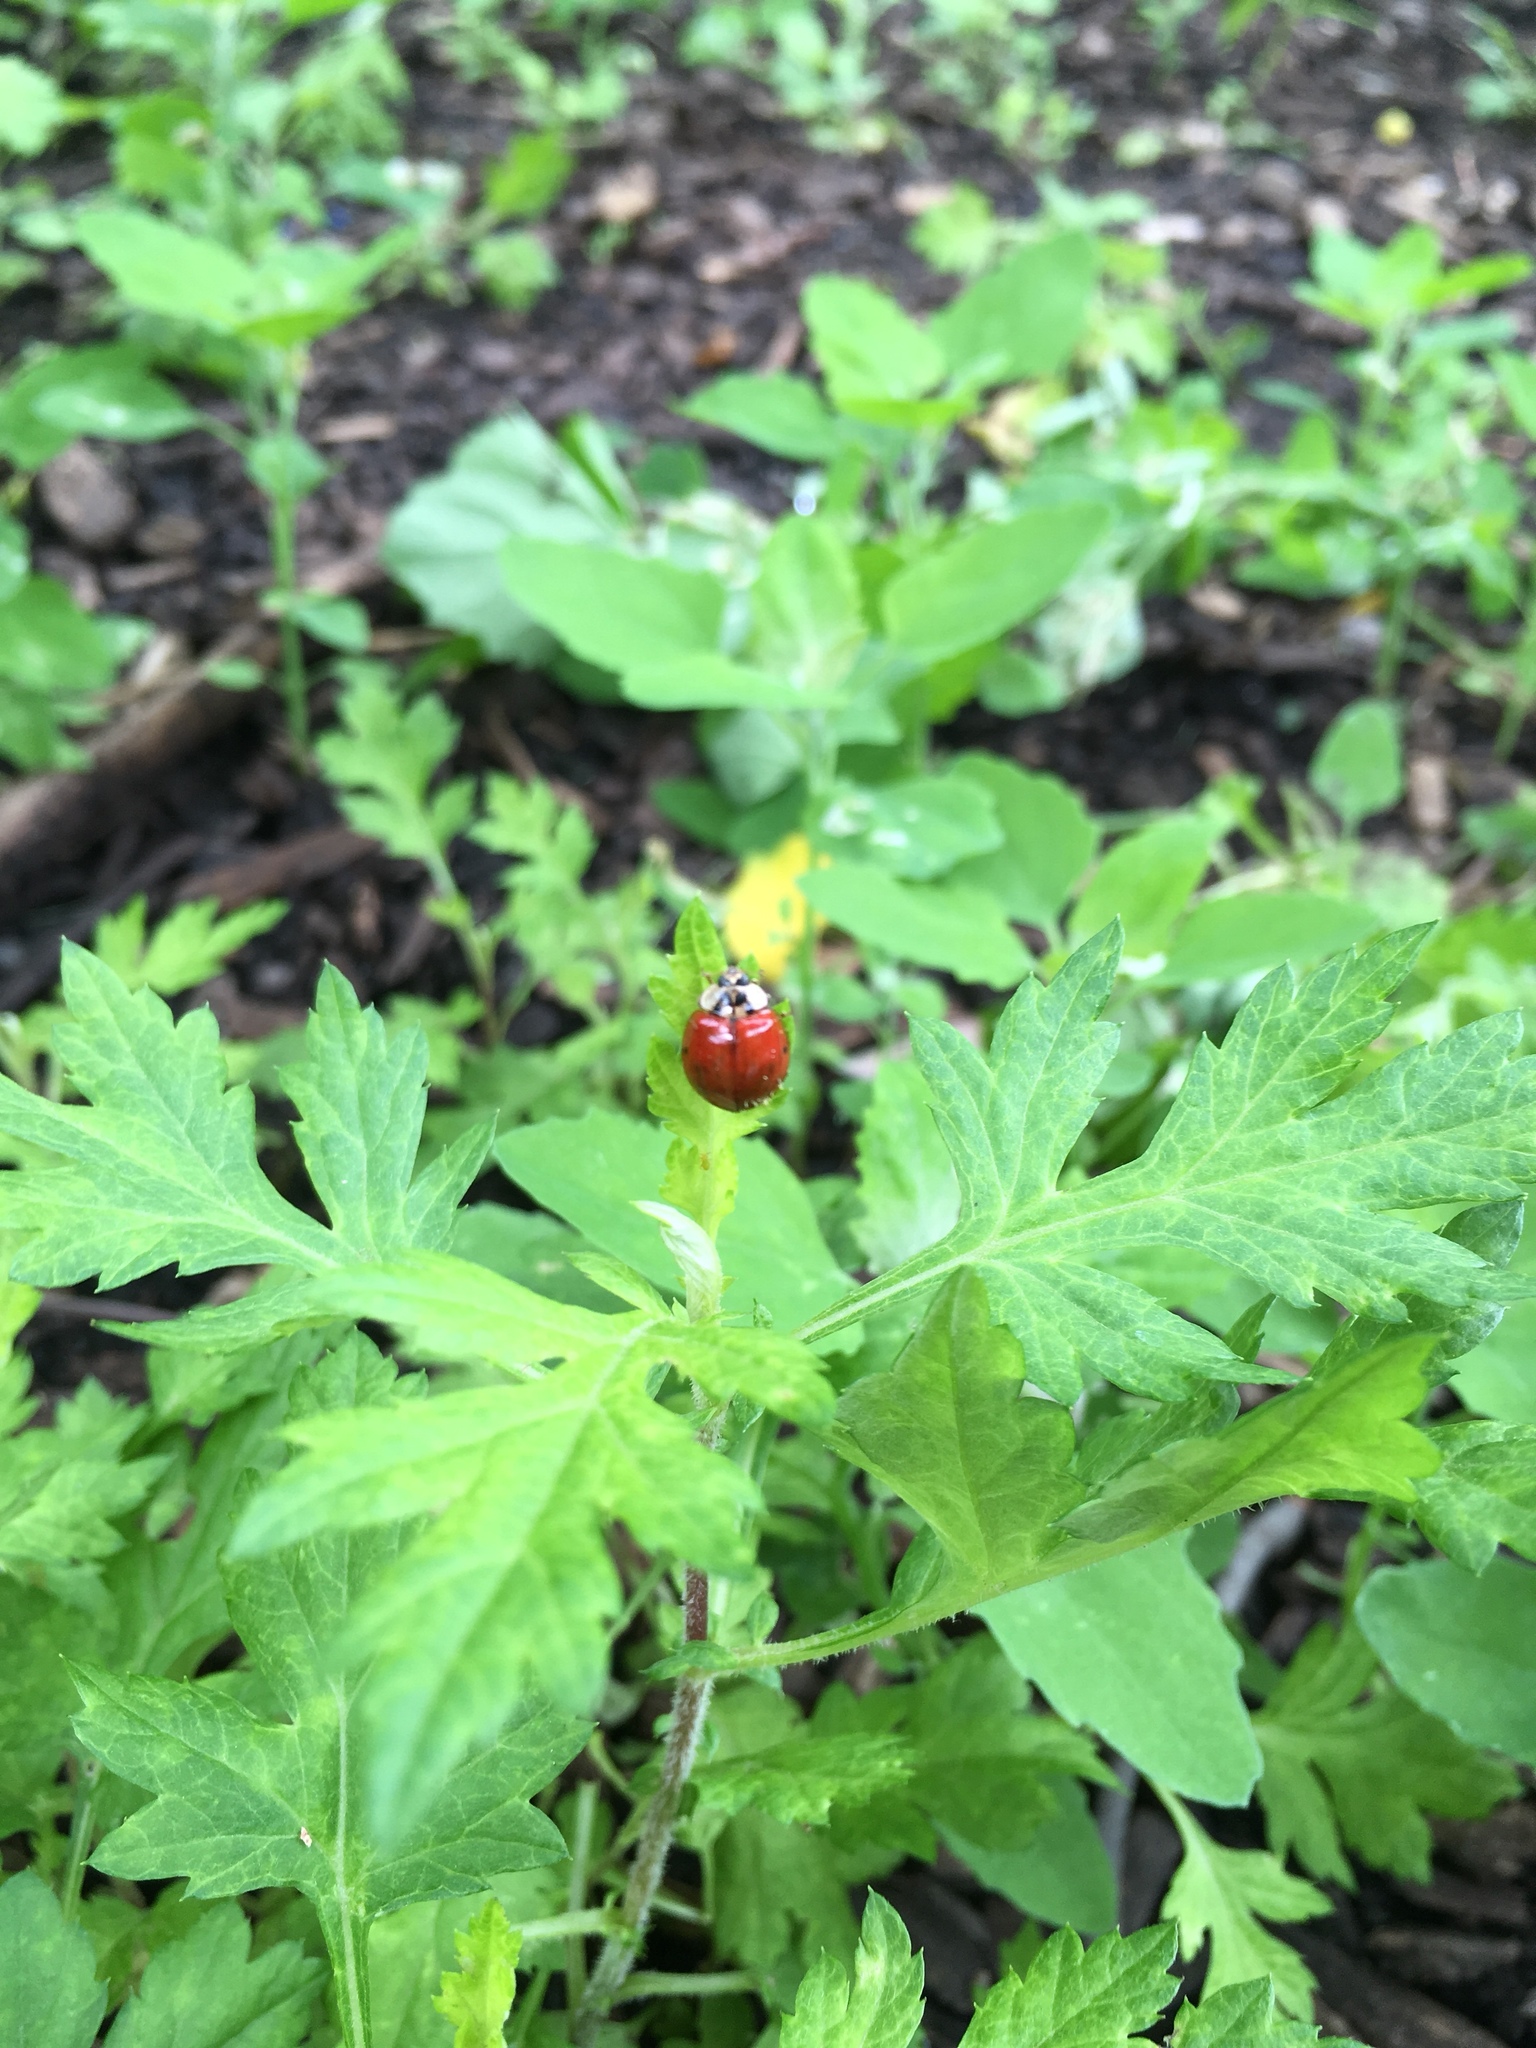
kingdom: Animalia
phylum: Arthropoda
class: Insecta
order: Coleoptera
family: Coccinellidae
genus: Harmonia
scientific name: Harmonia axyridis
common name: Harlequin ladybird
